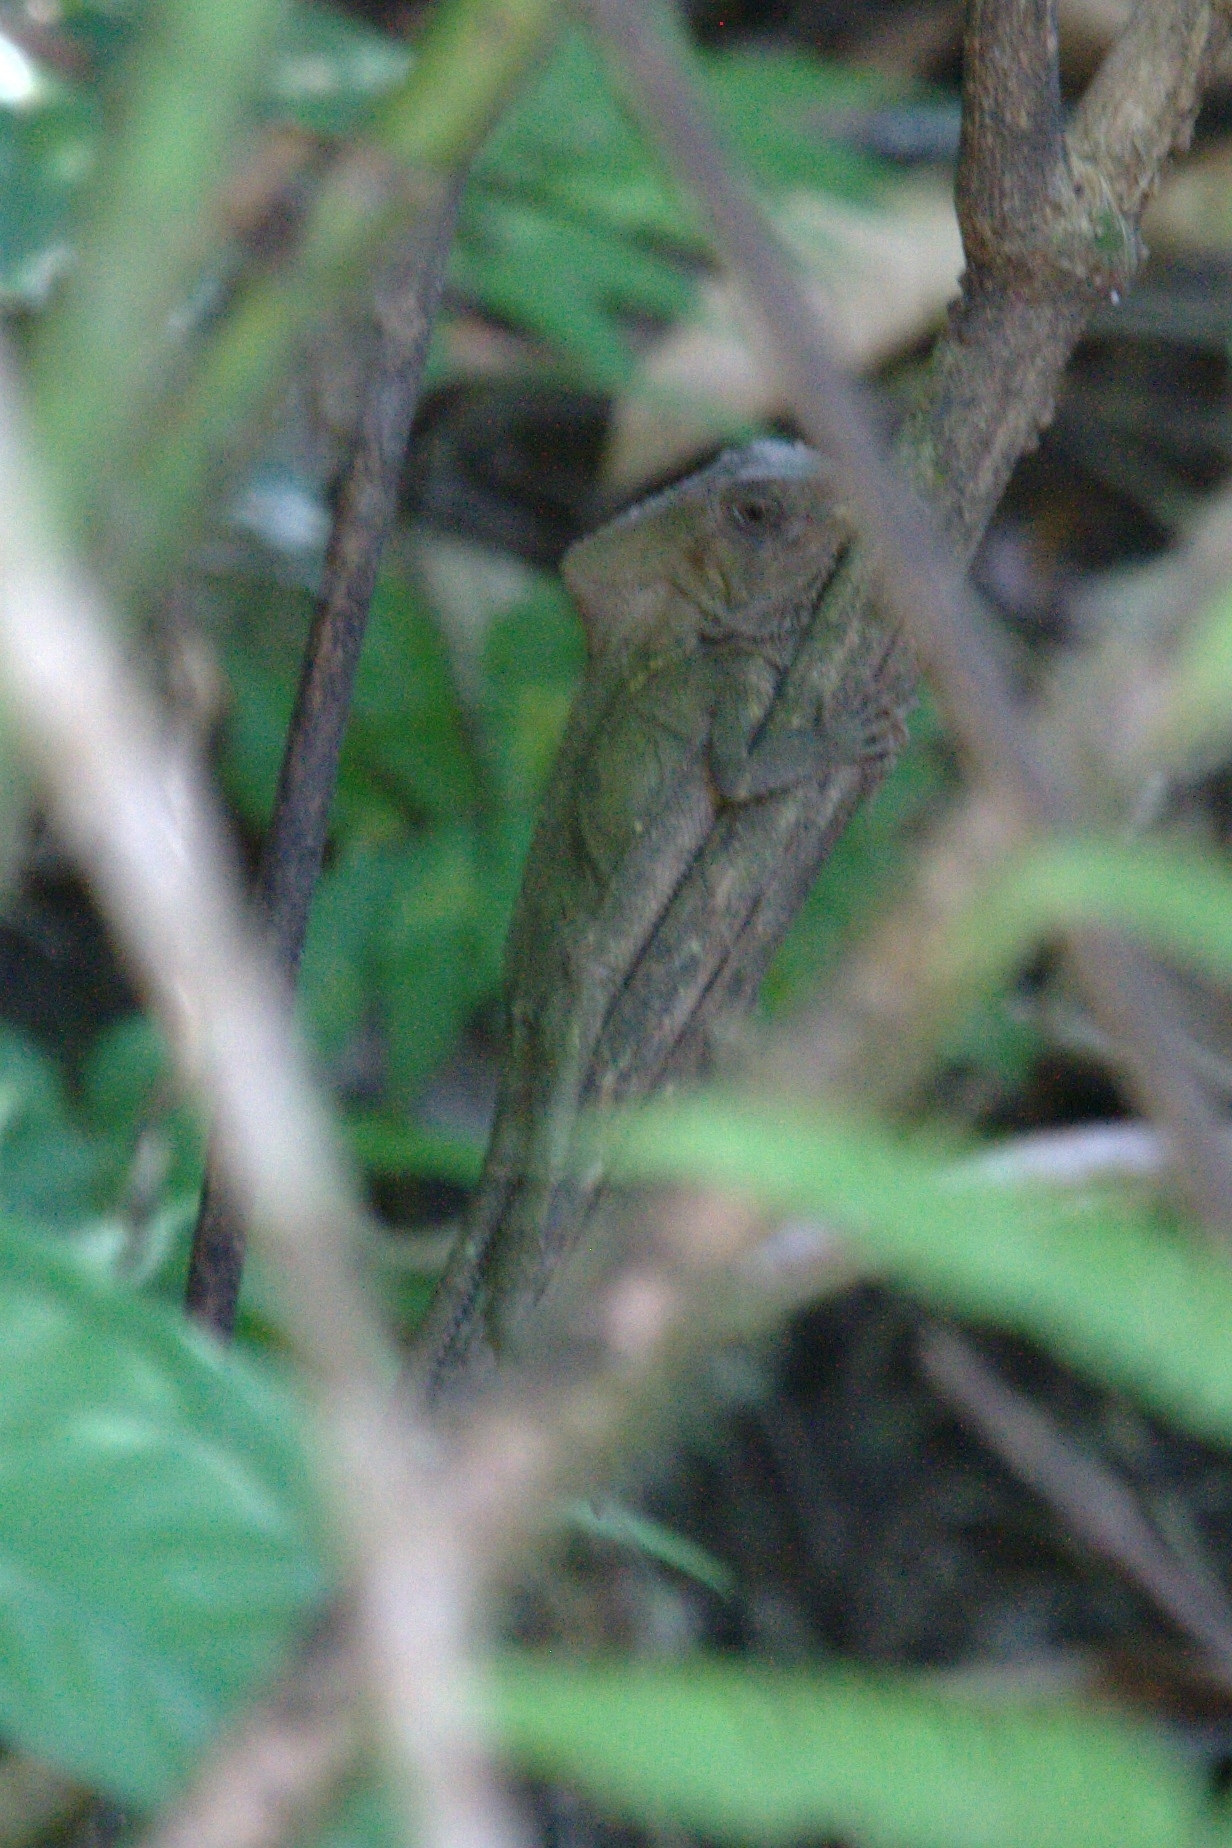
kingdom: Animalia
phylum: Chordata
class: Squamata
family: Corytophanidae
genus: Corytophanes
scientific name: Corytophanes cristatus
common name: Smooth helmeted iguana
